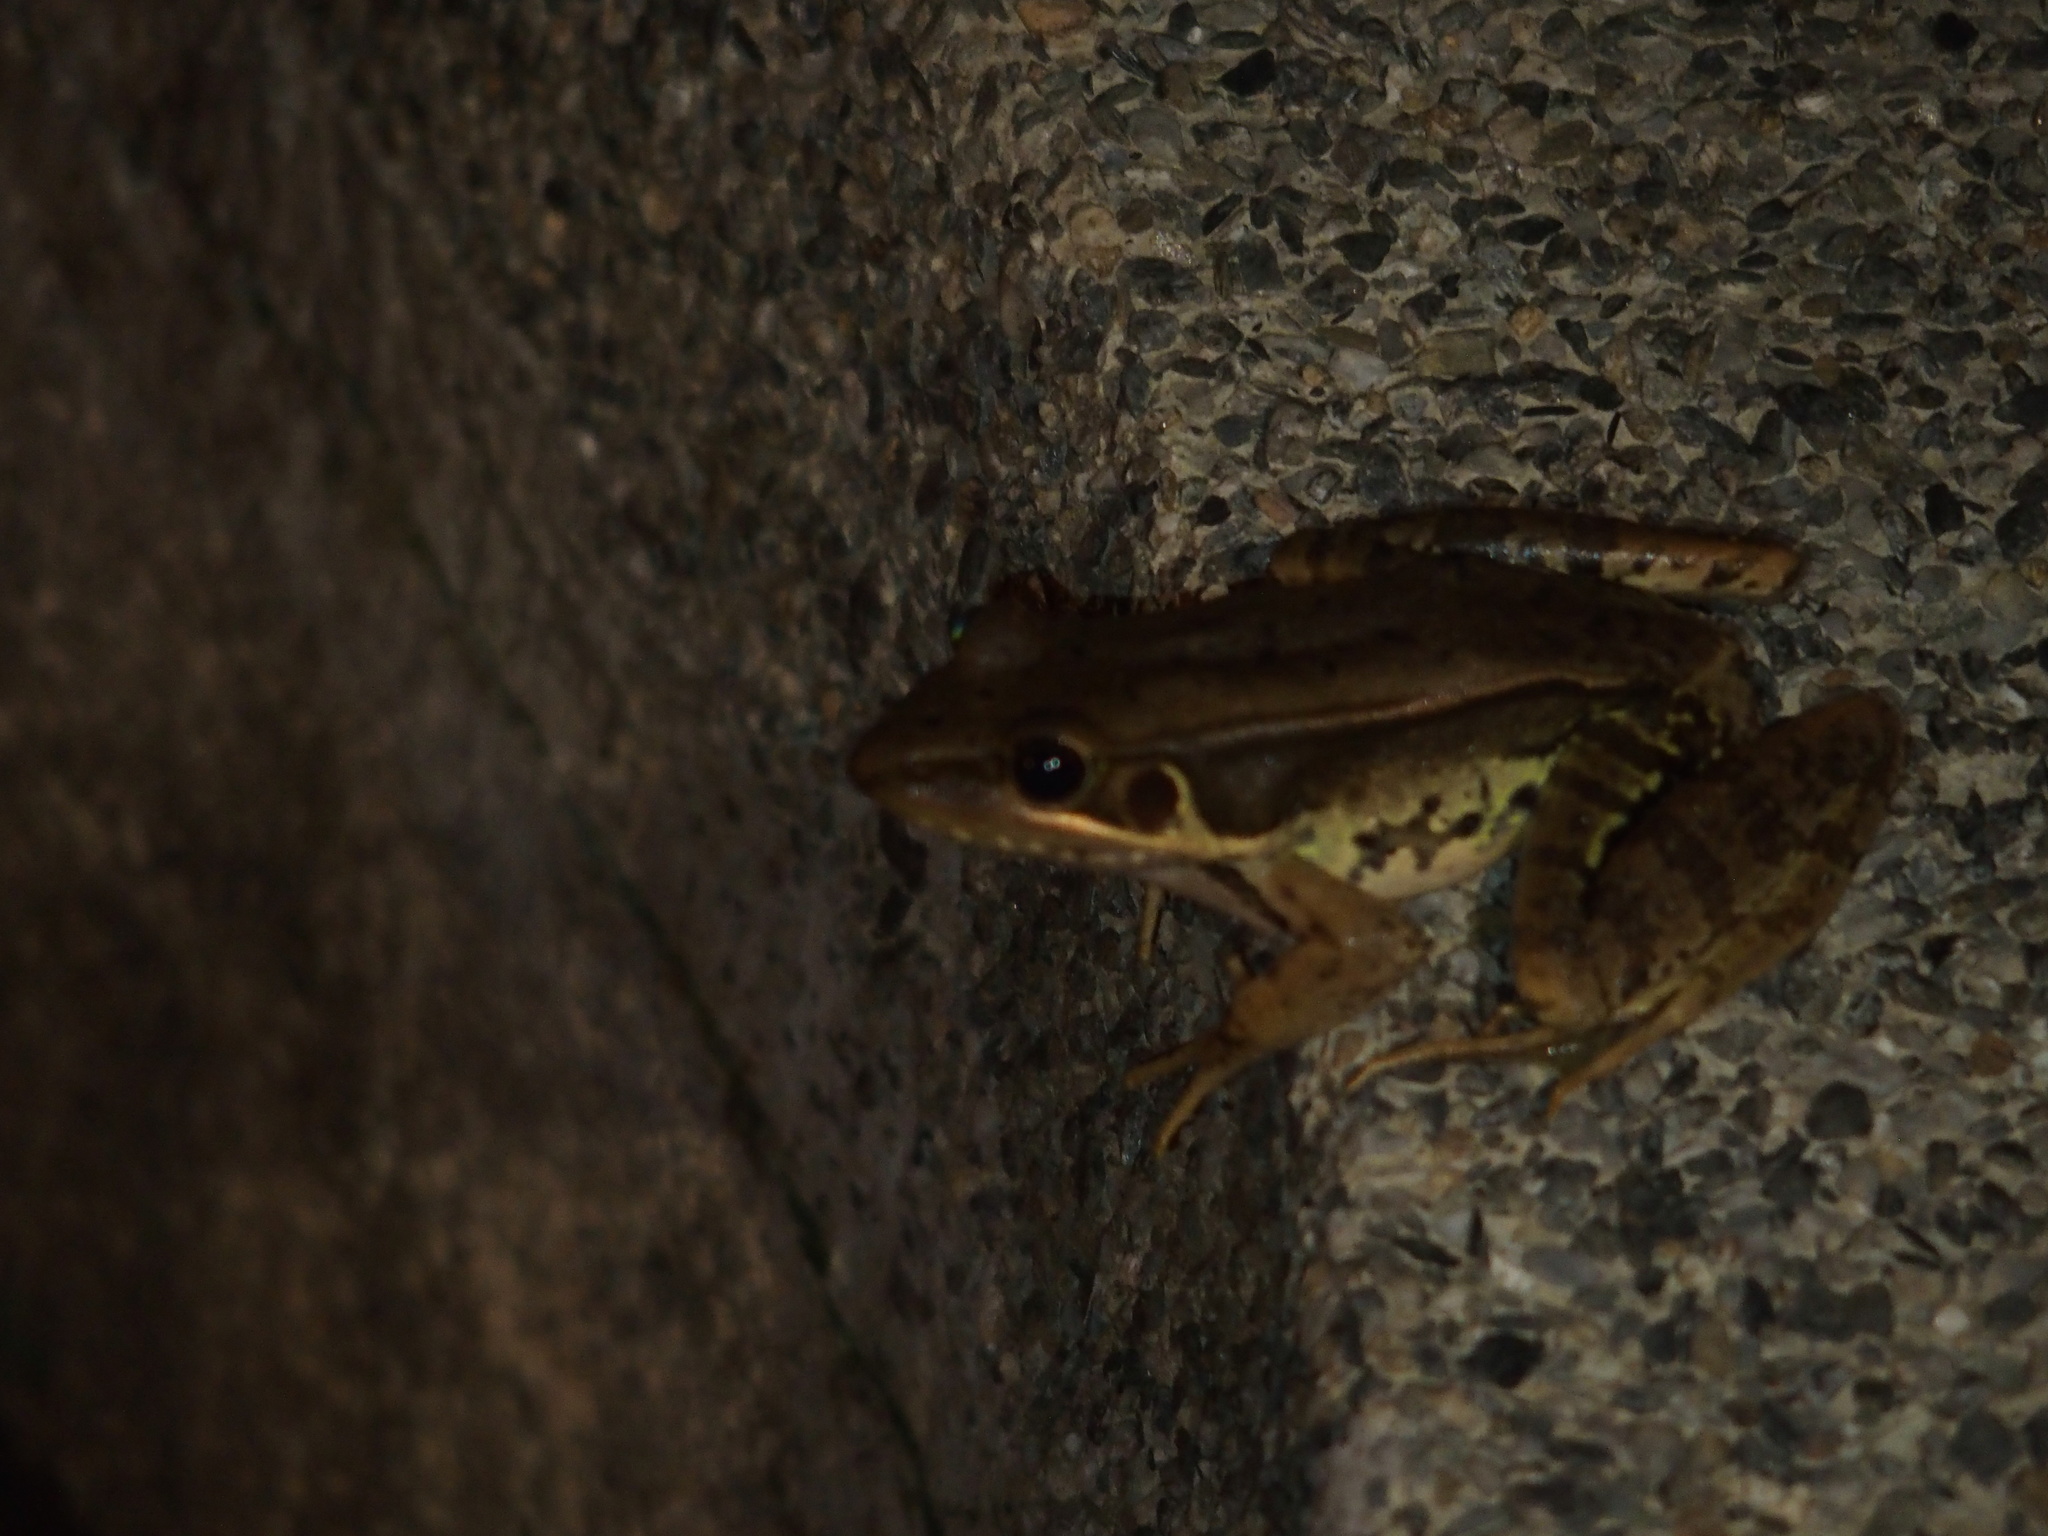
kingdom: Animalia
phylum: Chordata
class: Amphibia
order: Anura
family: Ranidae
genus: Sylvirana
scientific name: Sylvirana guentheri
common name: Guenther's amoy frog
